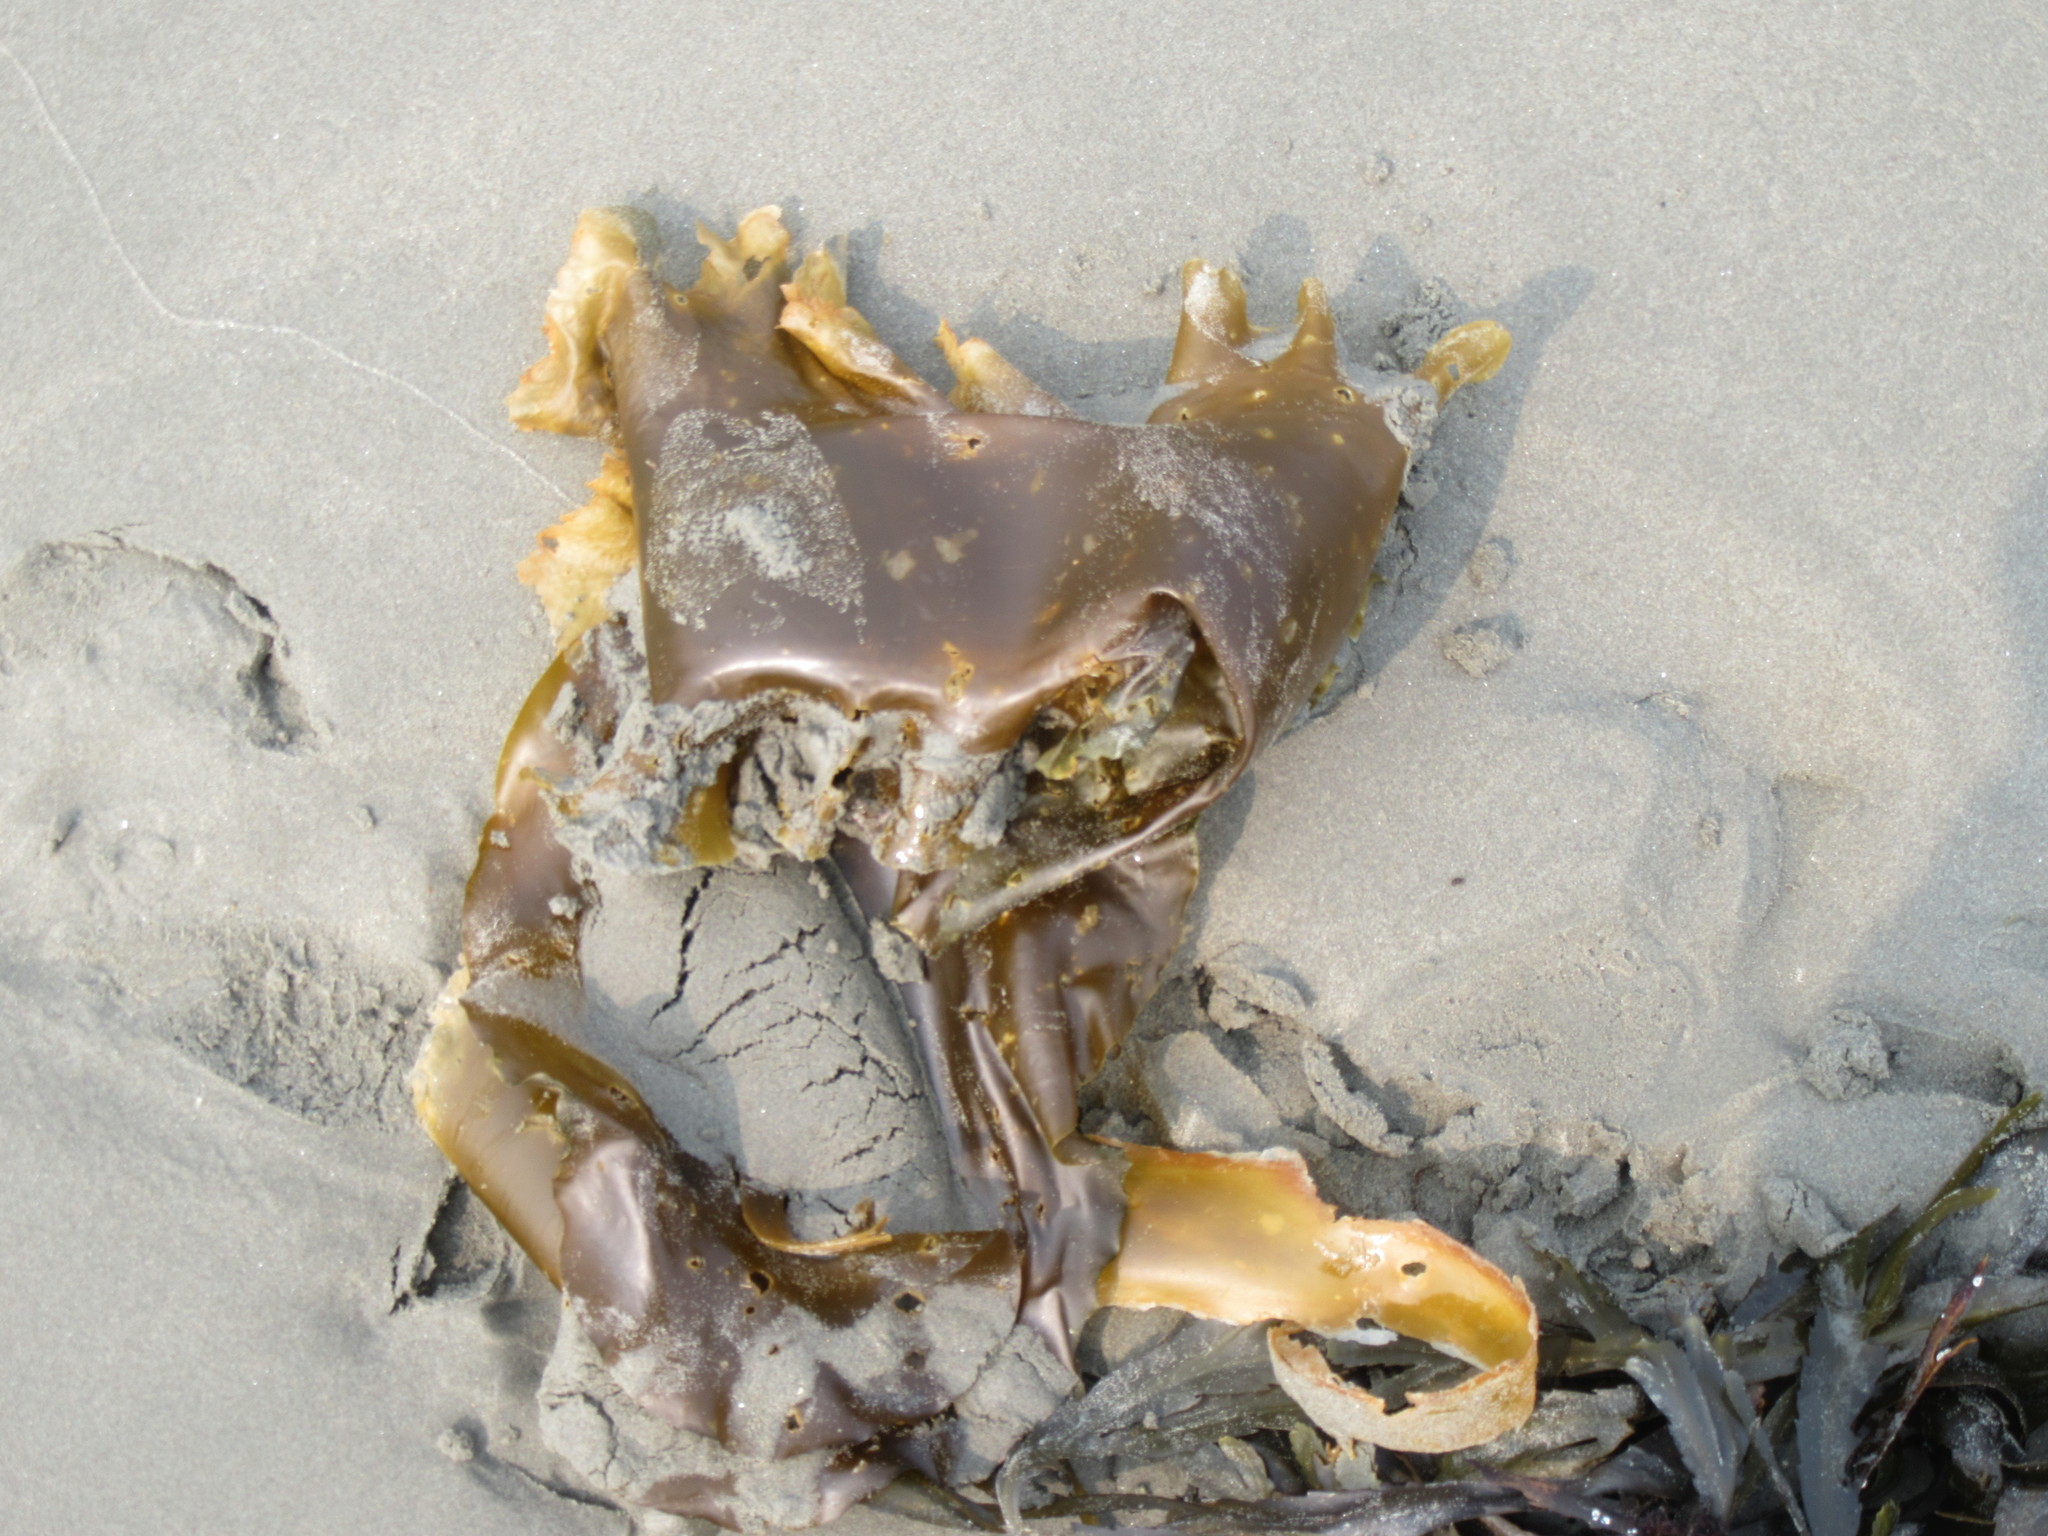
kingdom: Chromista
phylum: Ochrophyta
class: Phaeophyceae
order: Laminariales
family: Laminariaceae
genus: Saccharina
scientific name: Saccharina latissima
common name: Poor man's weather glass
